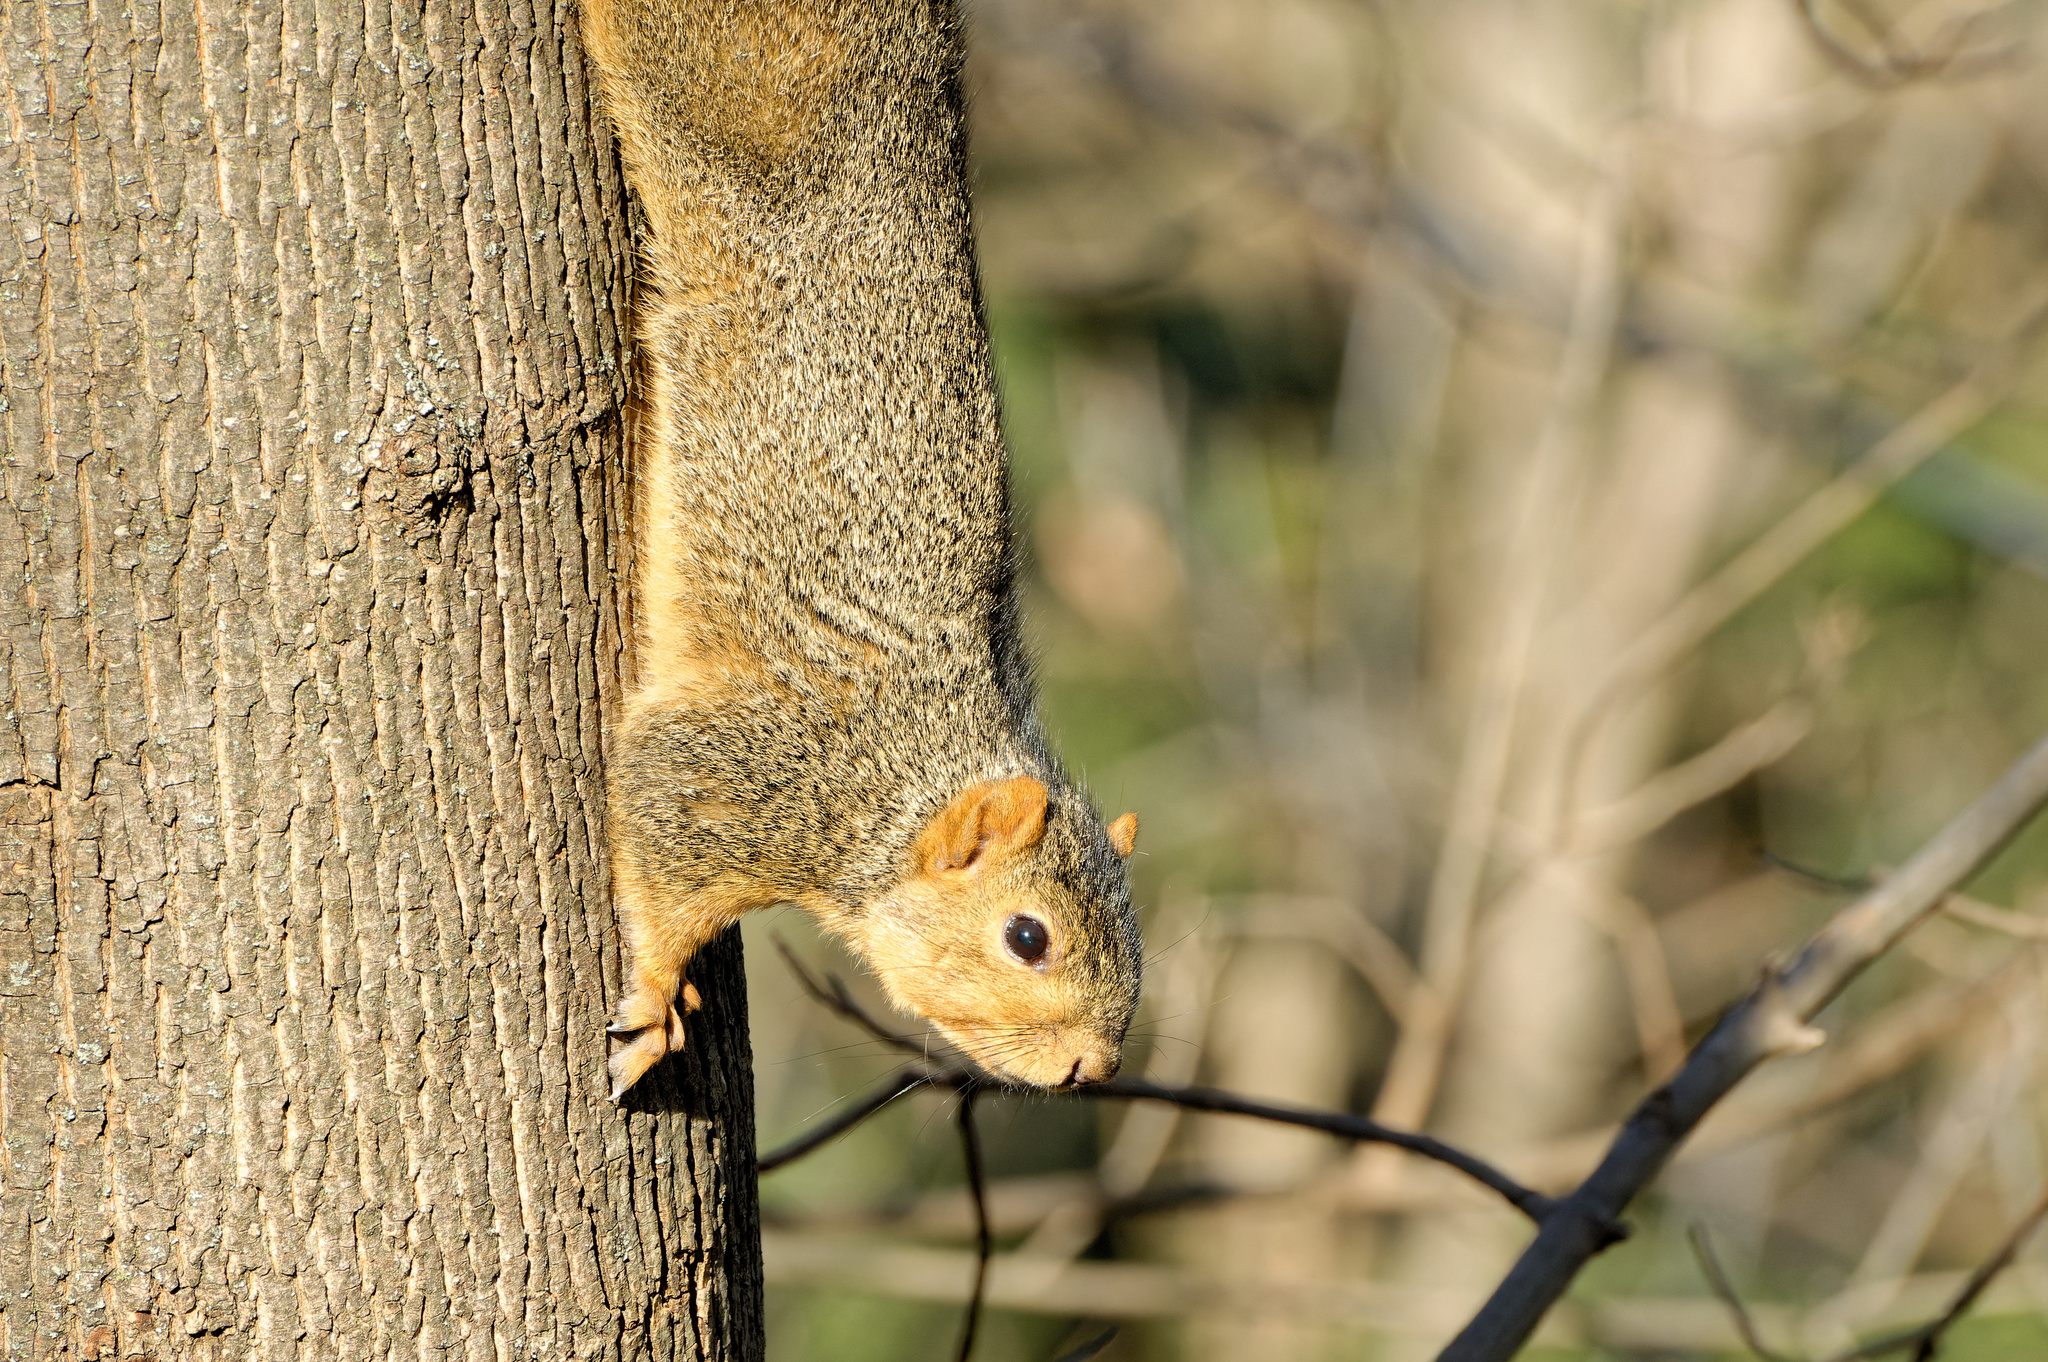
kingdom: Animalia
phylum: Chordata
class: Mammalia
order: Rodentia
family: Sciuridae
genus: Sciurus
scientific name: Sciurus niger
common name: Fox squirrel
